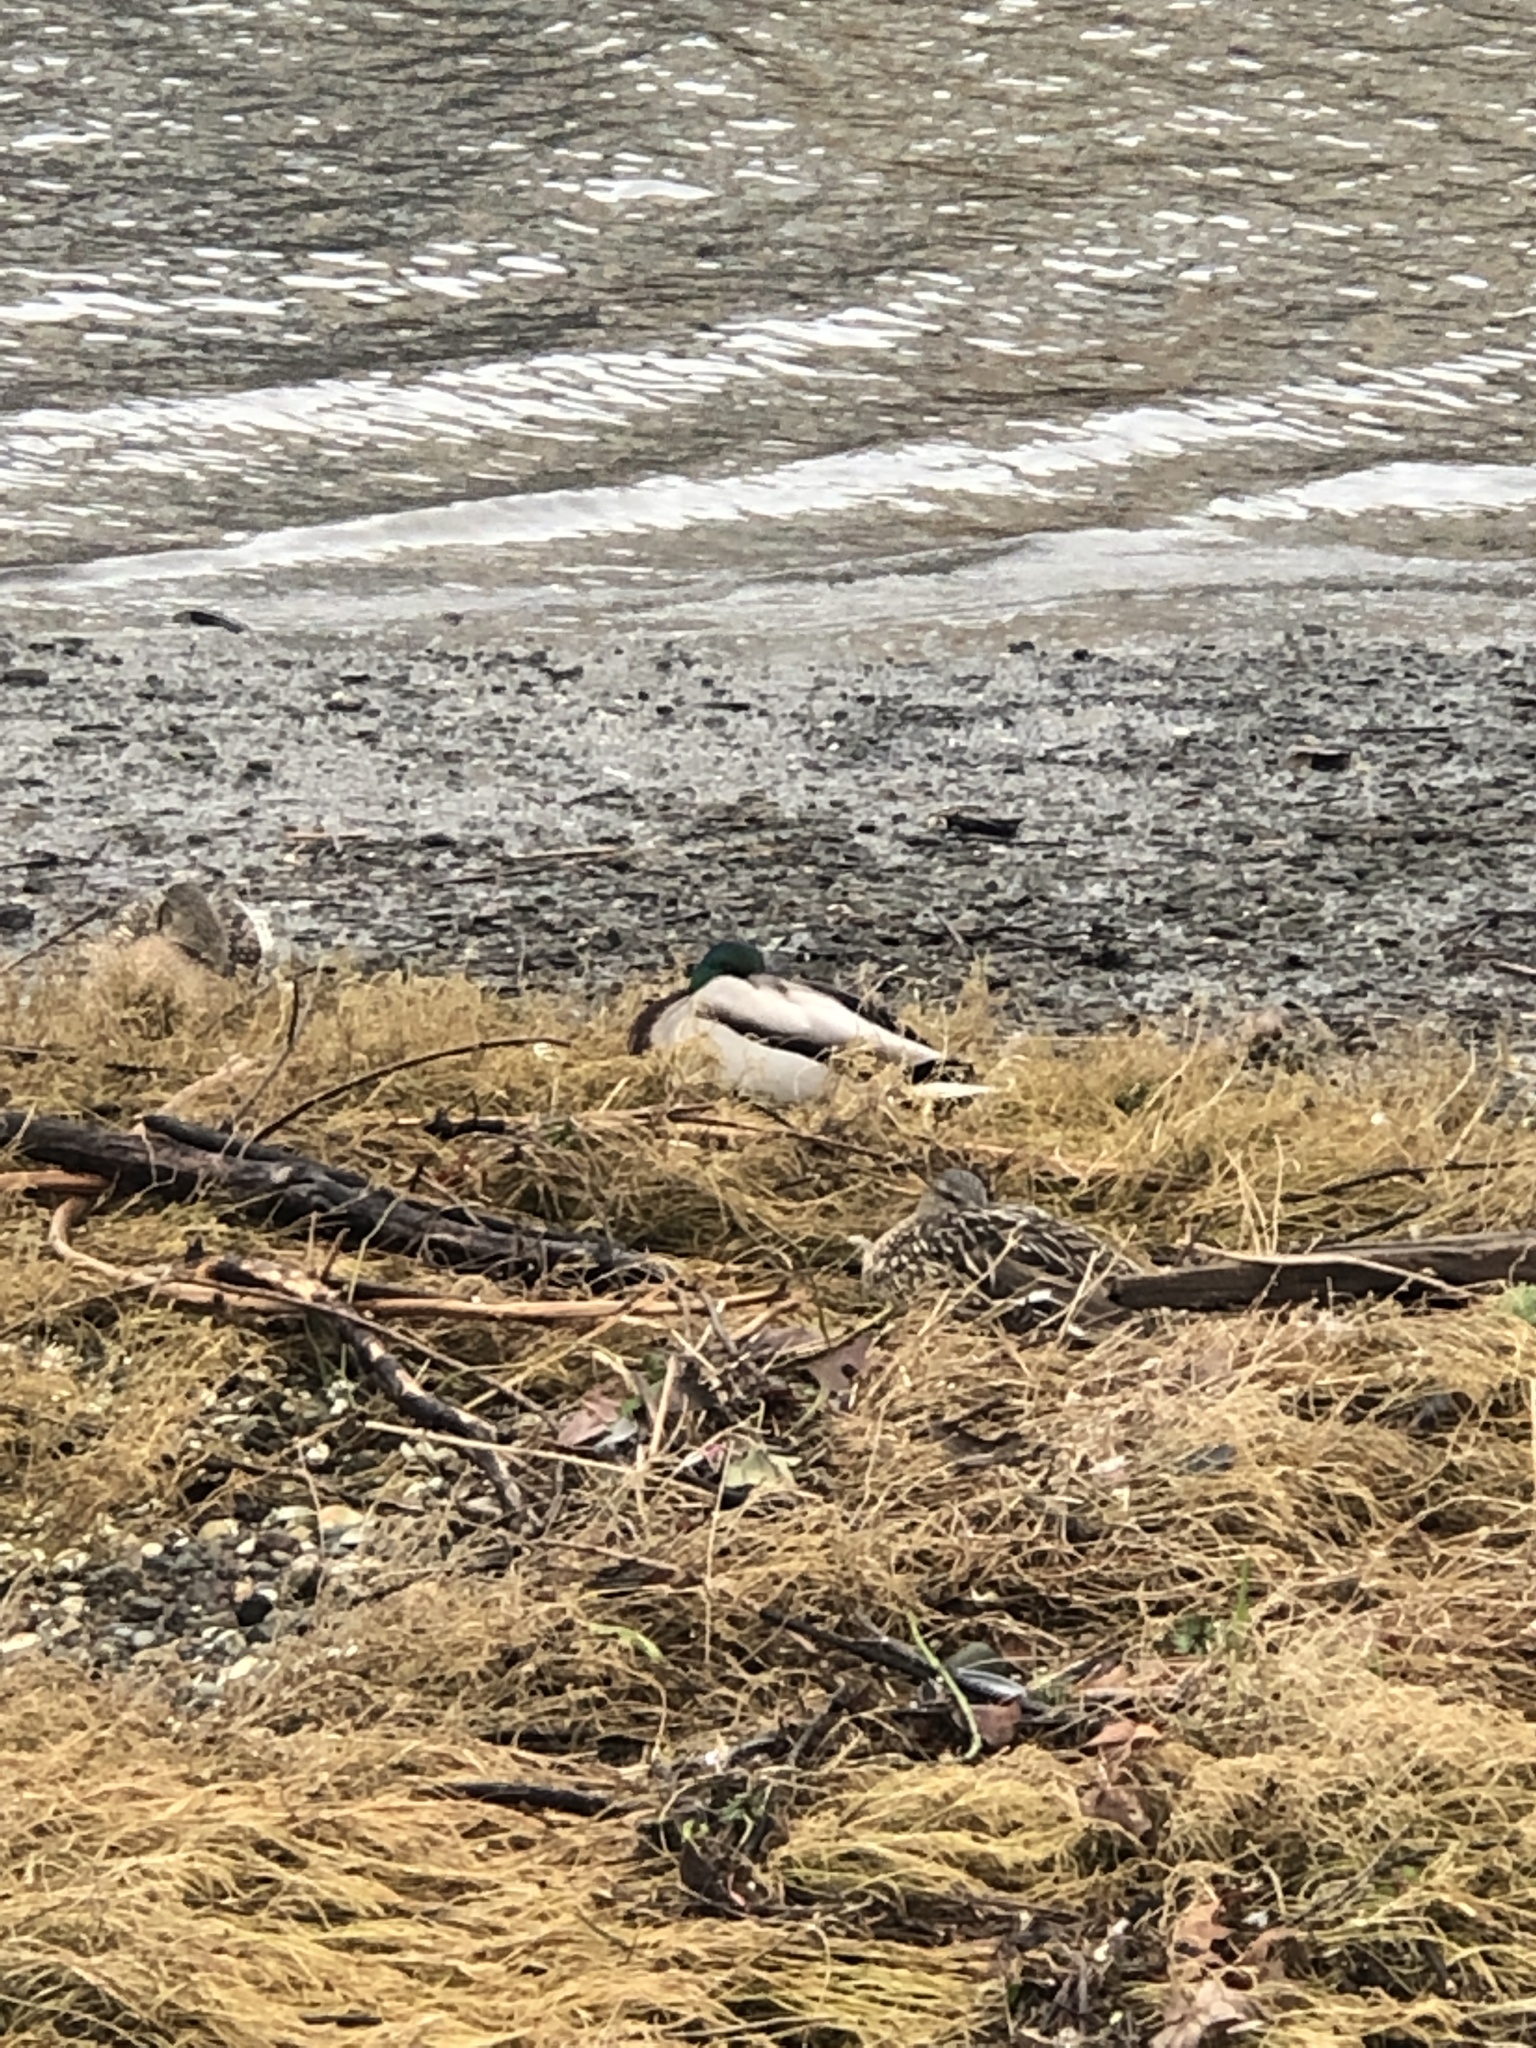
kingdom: Animalia
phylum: Chordata
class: Aves
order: Anseriformes
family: Anatidae
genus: Anas
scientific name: Anas platyrhynchos
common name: Mallard
